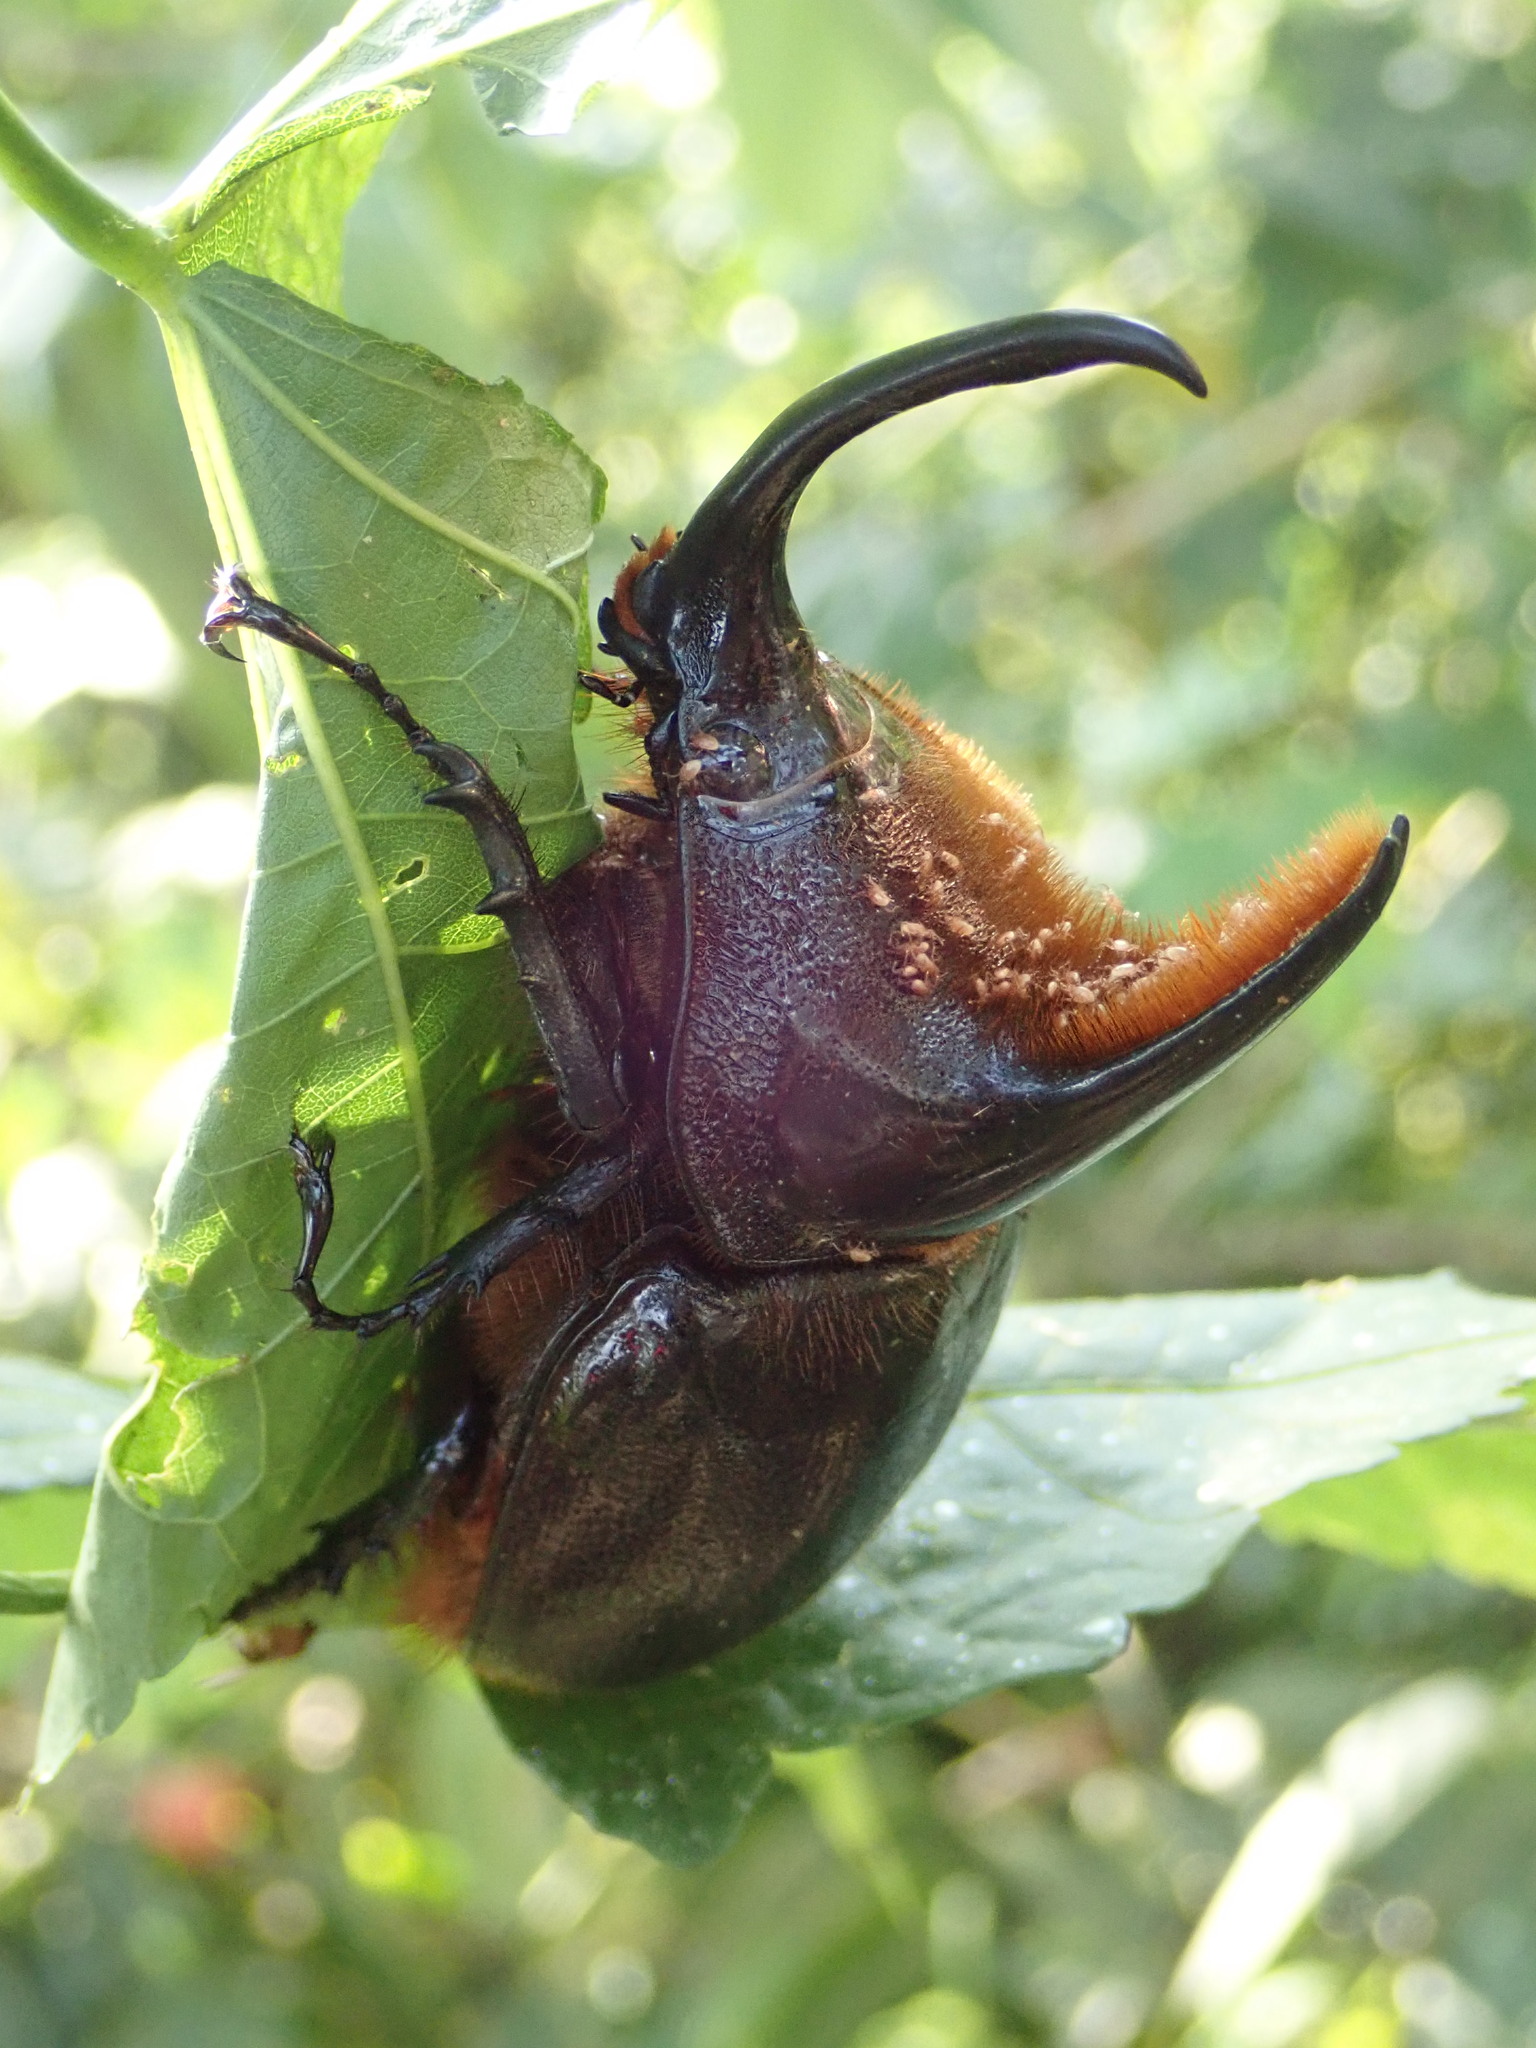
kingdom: Animalia
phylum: Arthropoda
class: Insecta
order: Coleoptera
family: Scarabaeidae
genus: Heterogomphus
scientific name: Heterogomphus schoenherri
